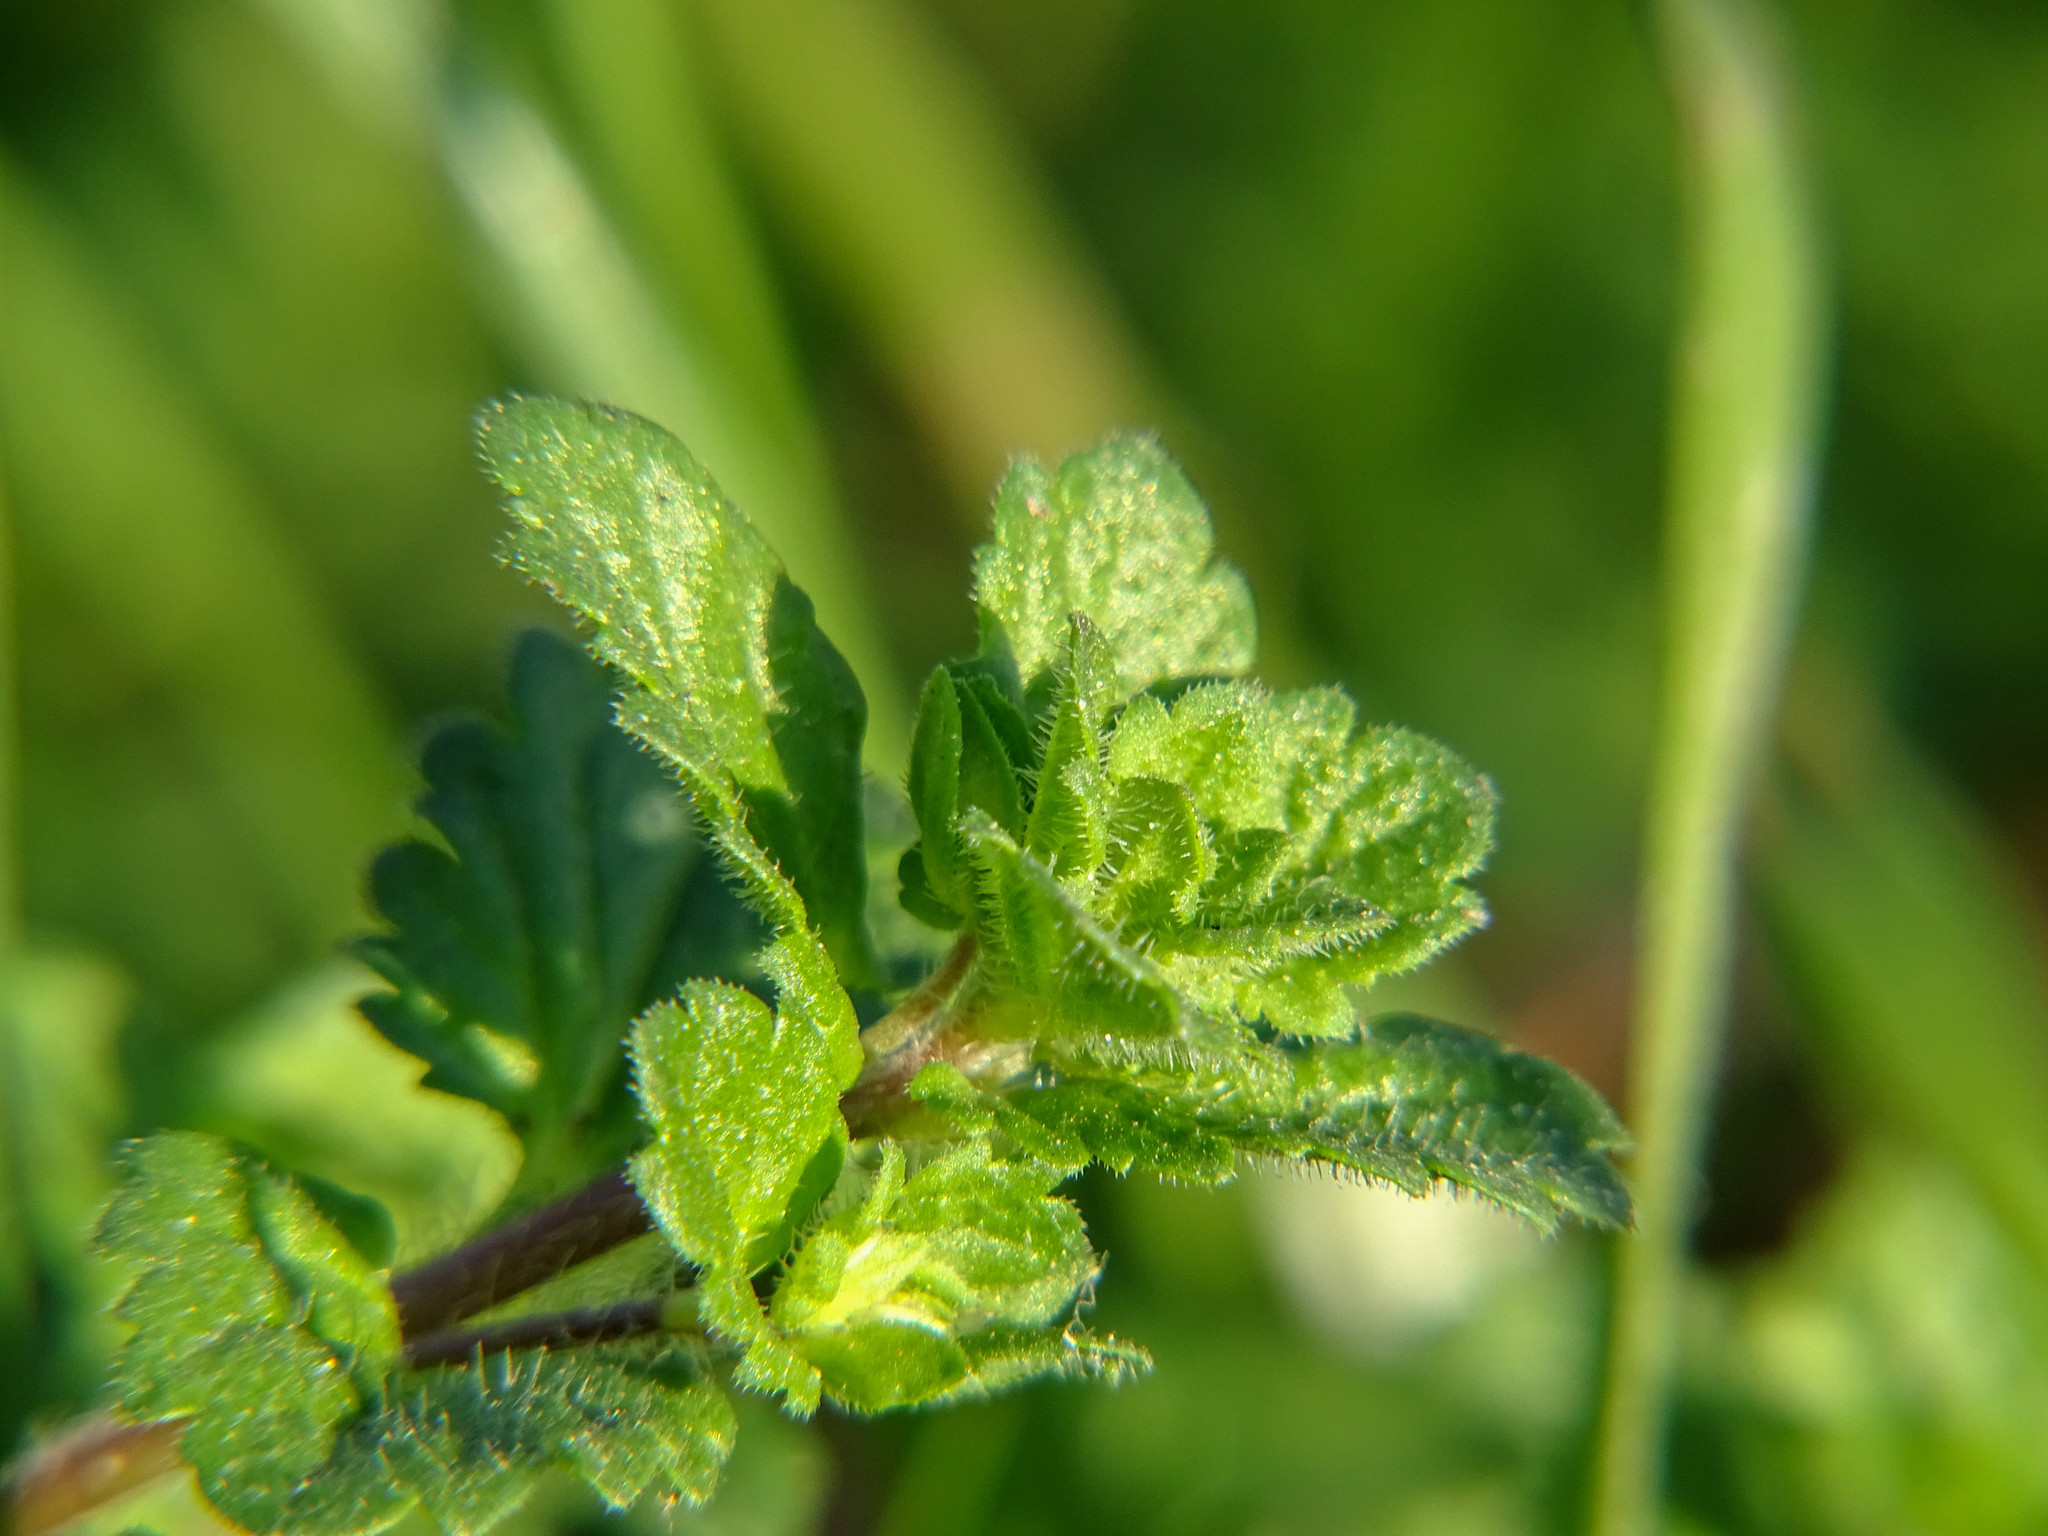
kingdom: Plantae
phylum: Tracheophyta
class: Magnoliopsida
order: Lamiales
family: Plantaginaceae
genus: Veronica
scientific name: Veronica persica
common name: Common field-speedwell
